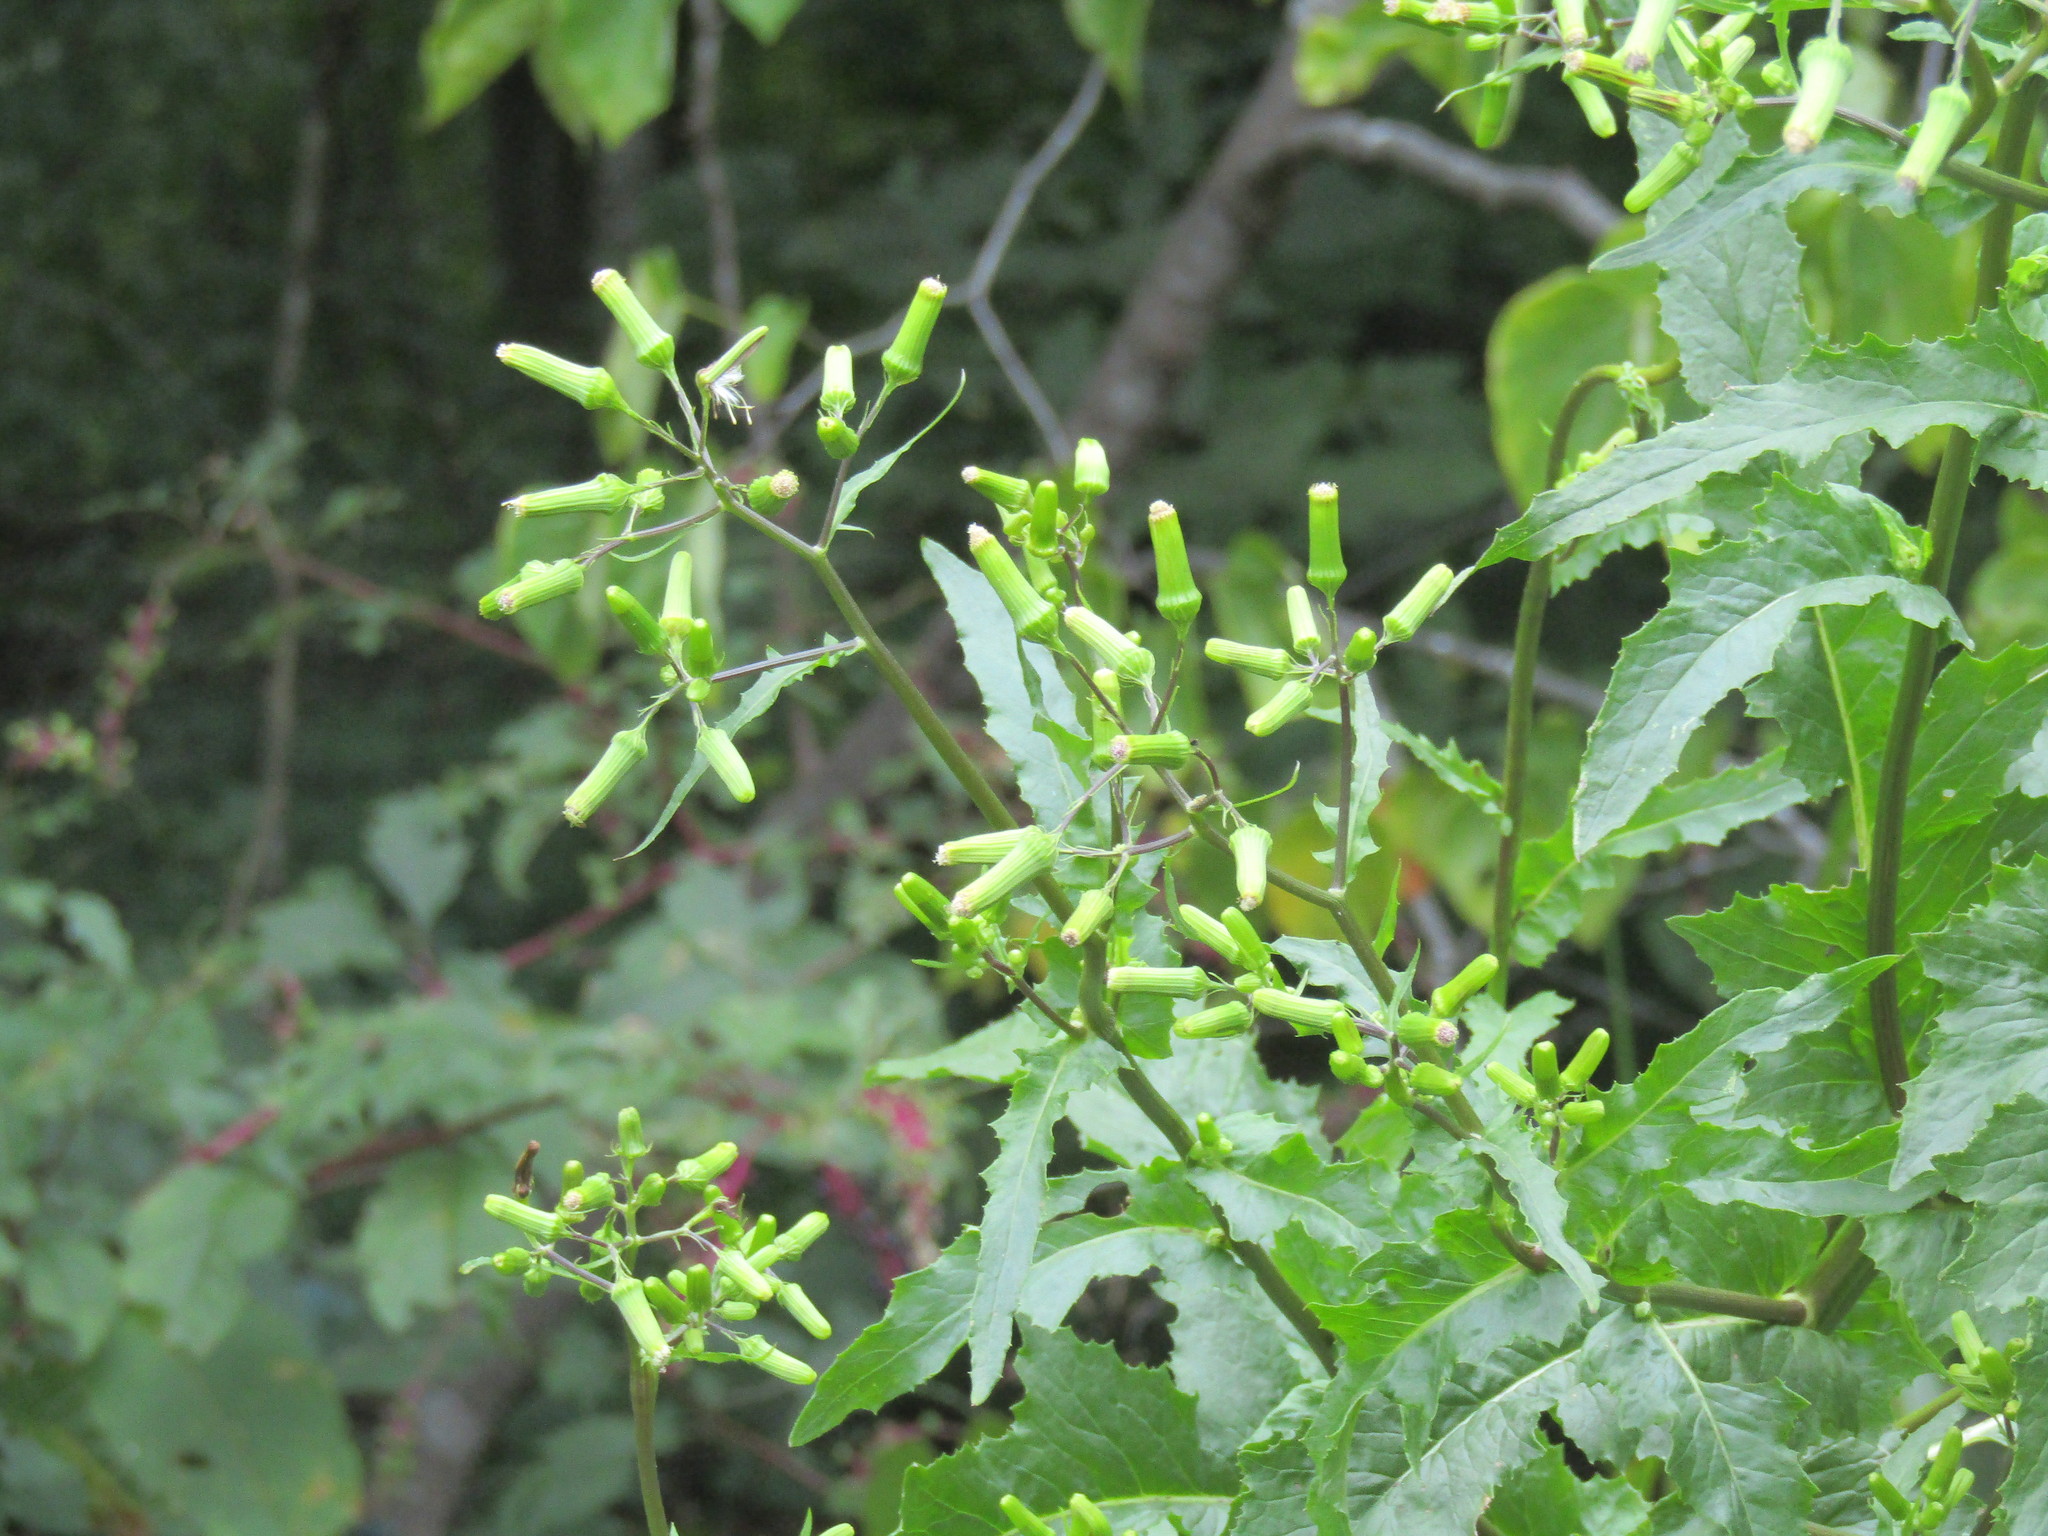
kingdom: Plantae
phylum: Tracheophyta
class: Magnoliopsida
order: Asterales
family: Asteraceae
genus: Erechtites
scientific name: Erechtites hieraciifolius
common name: American burnweed
